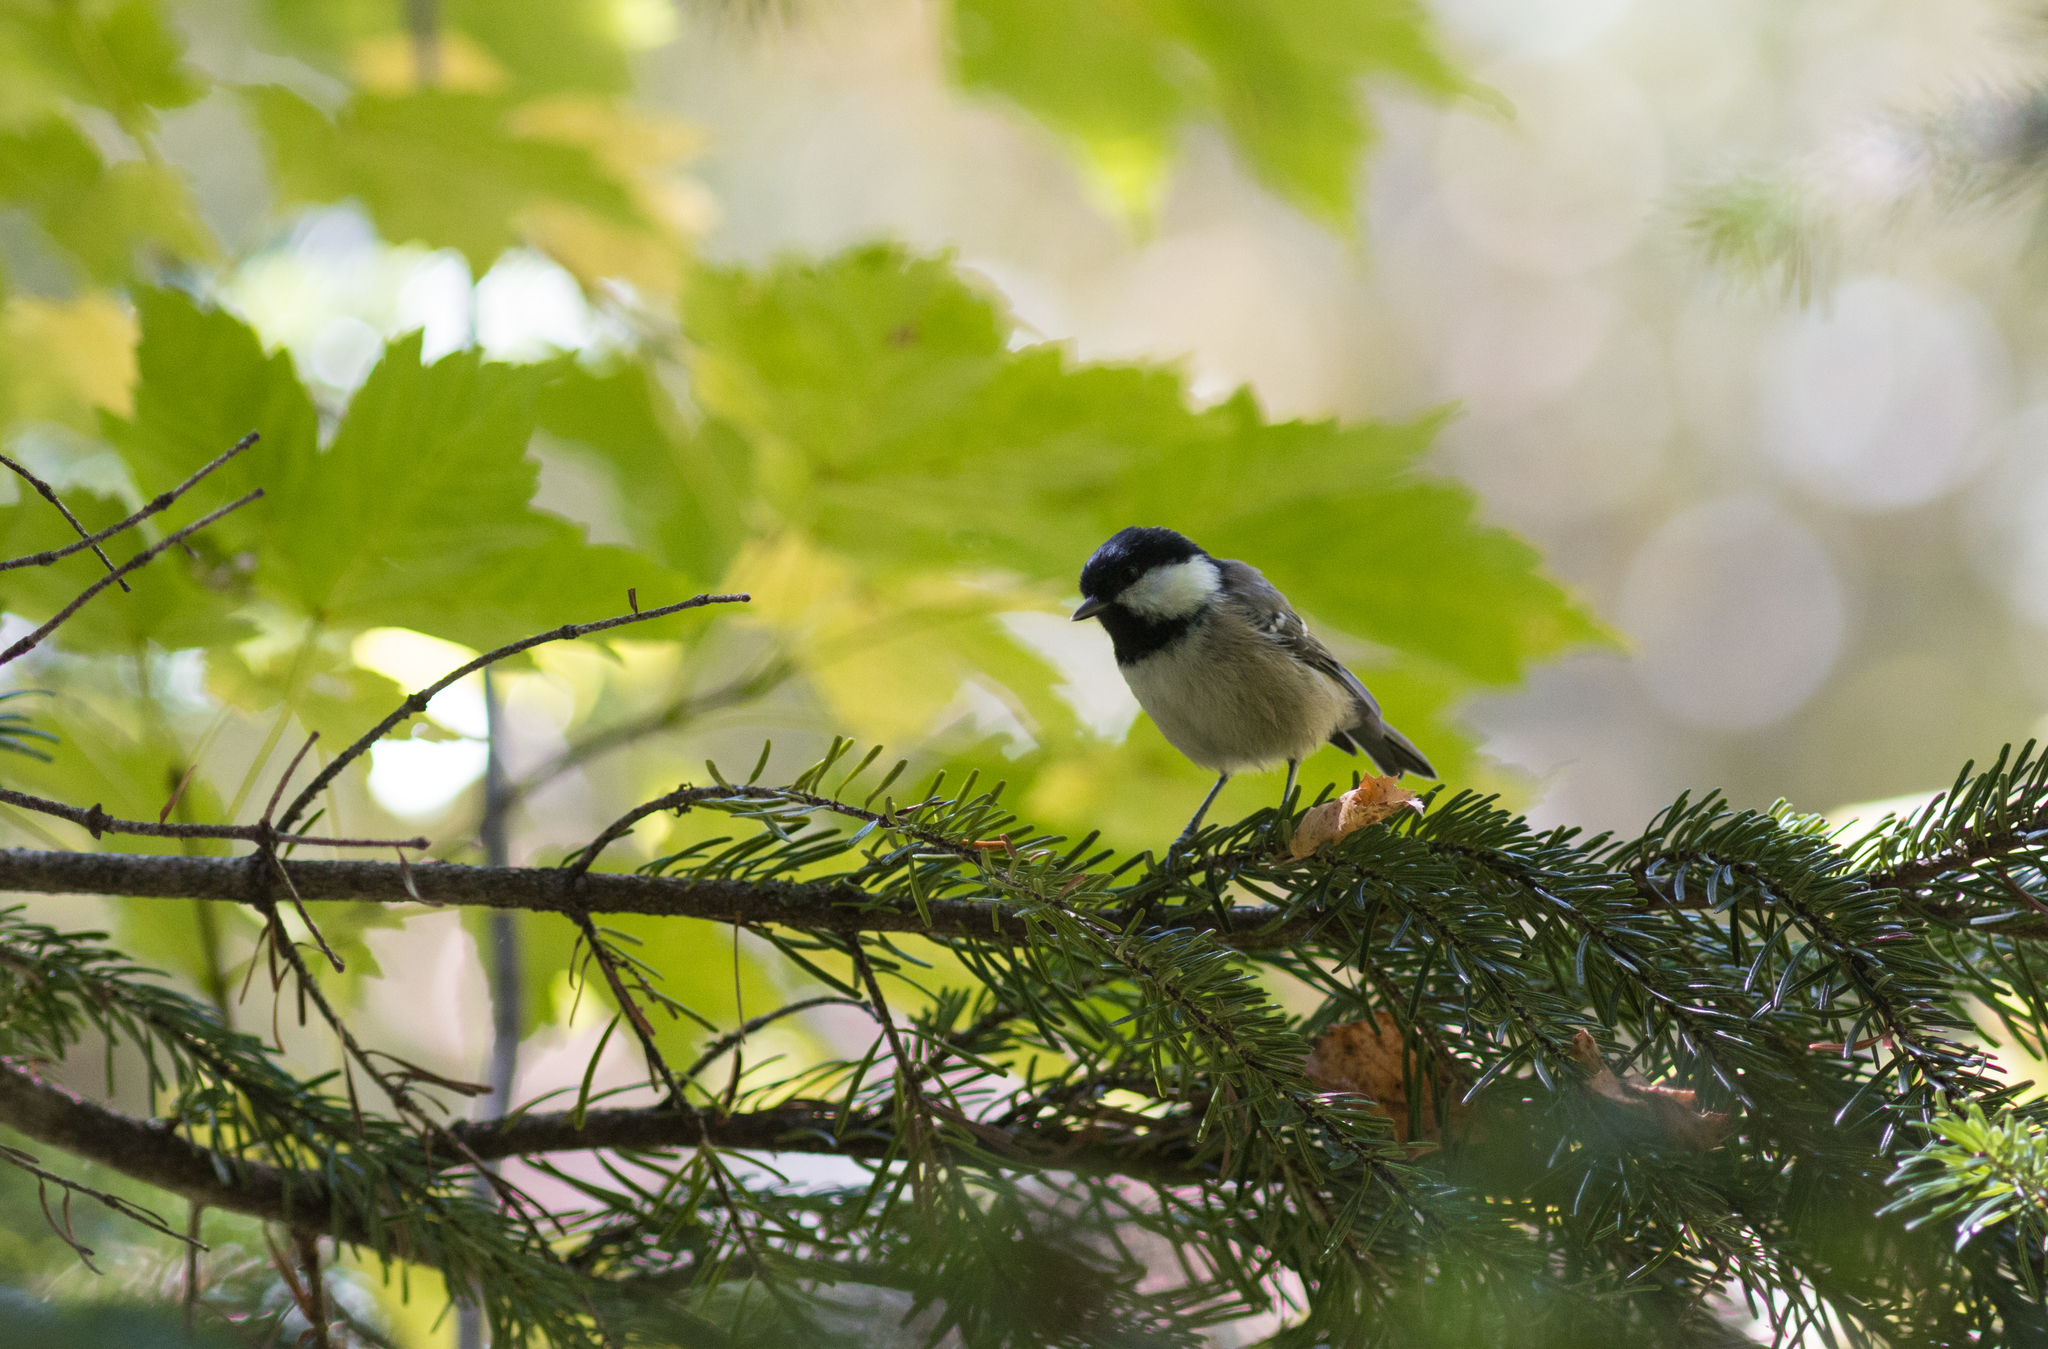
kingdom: Animalia
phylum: Chordata
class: Aves
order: Passeriformes
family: Paridae
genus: Periparus
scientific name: Periparus ater
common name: Coal tit
